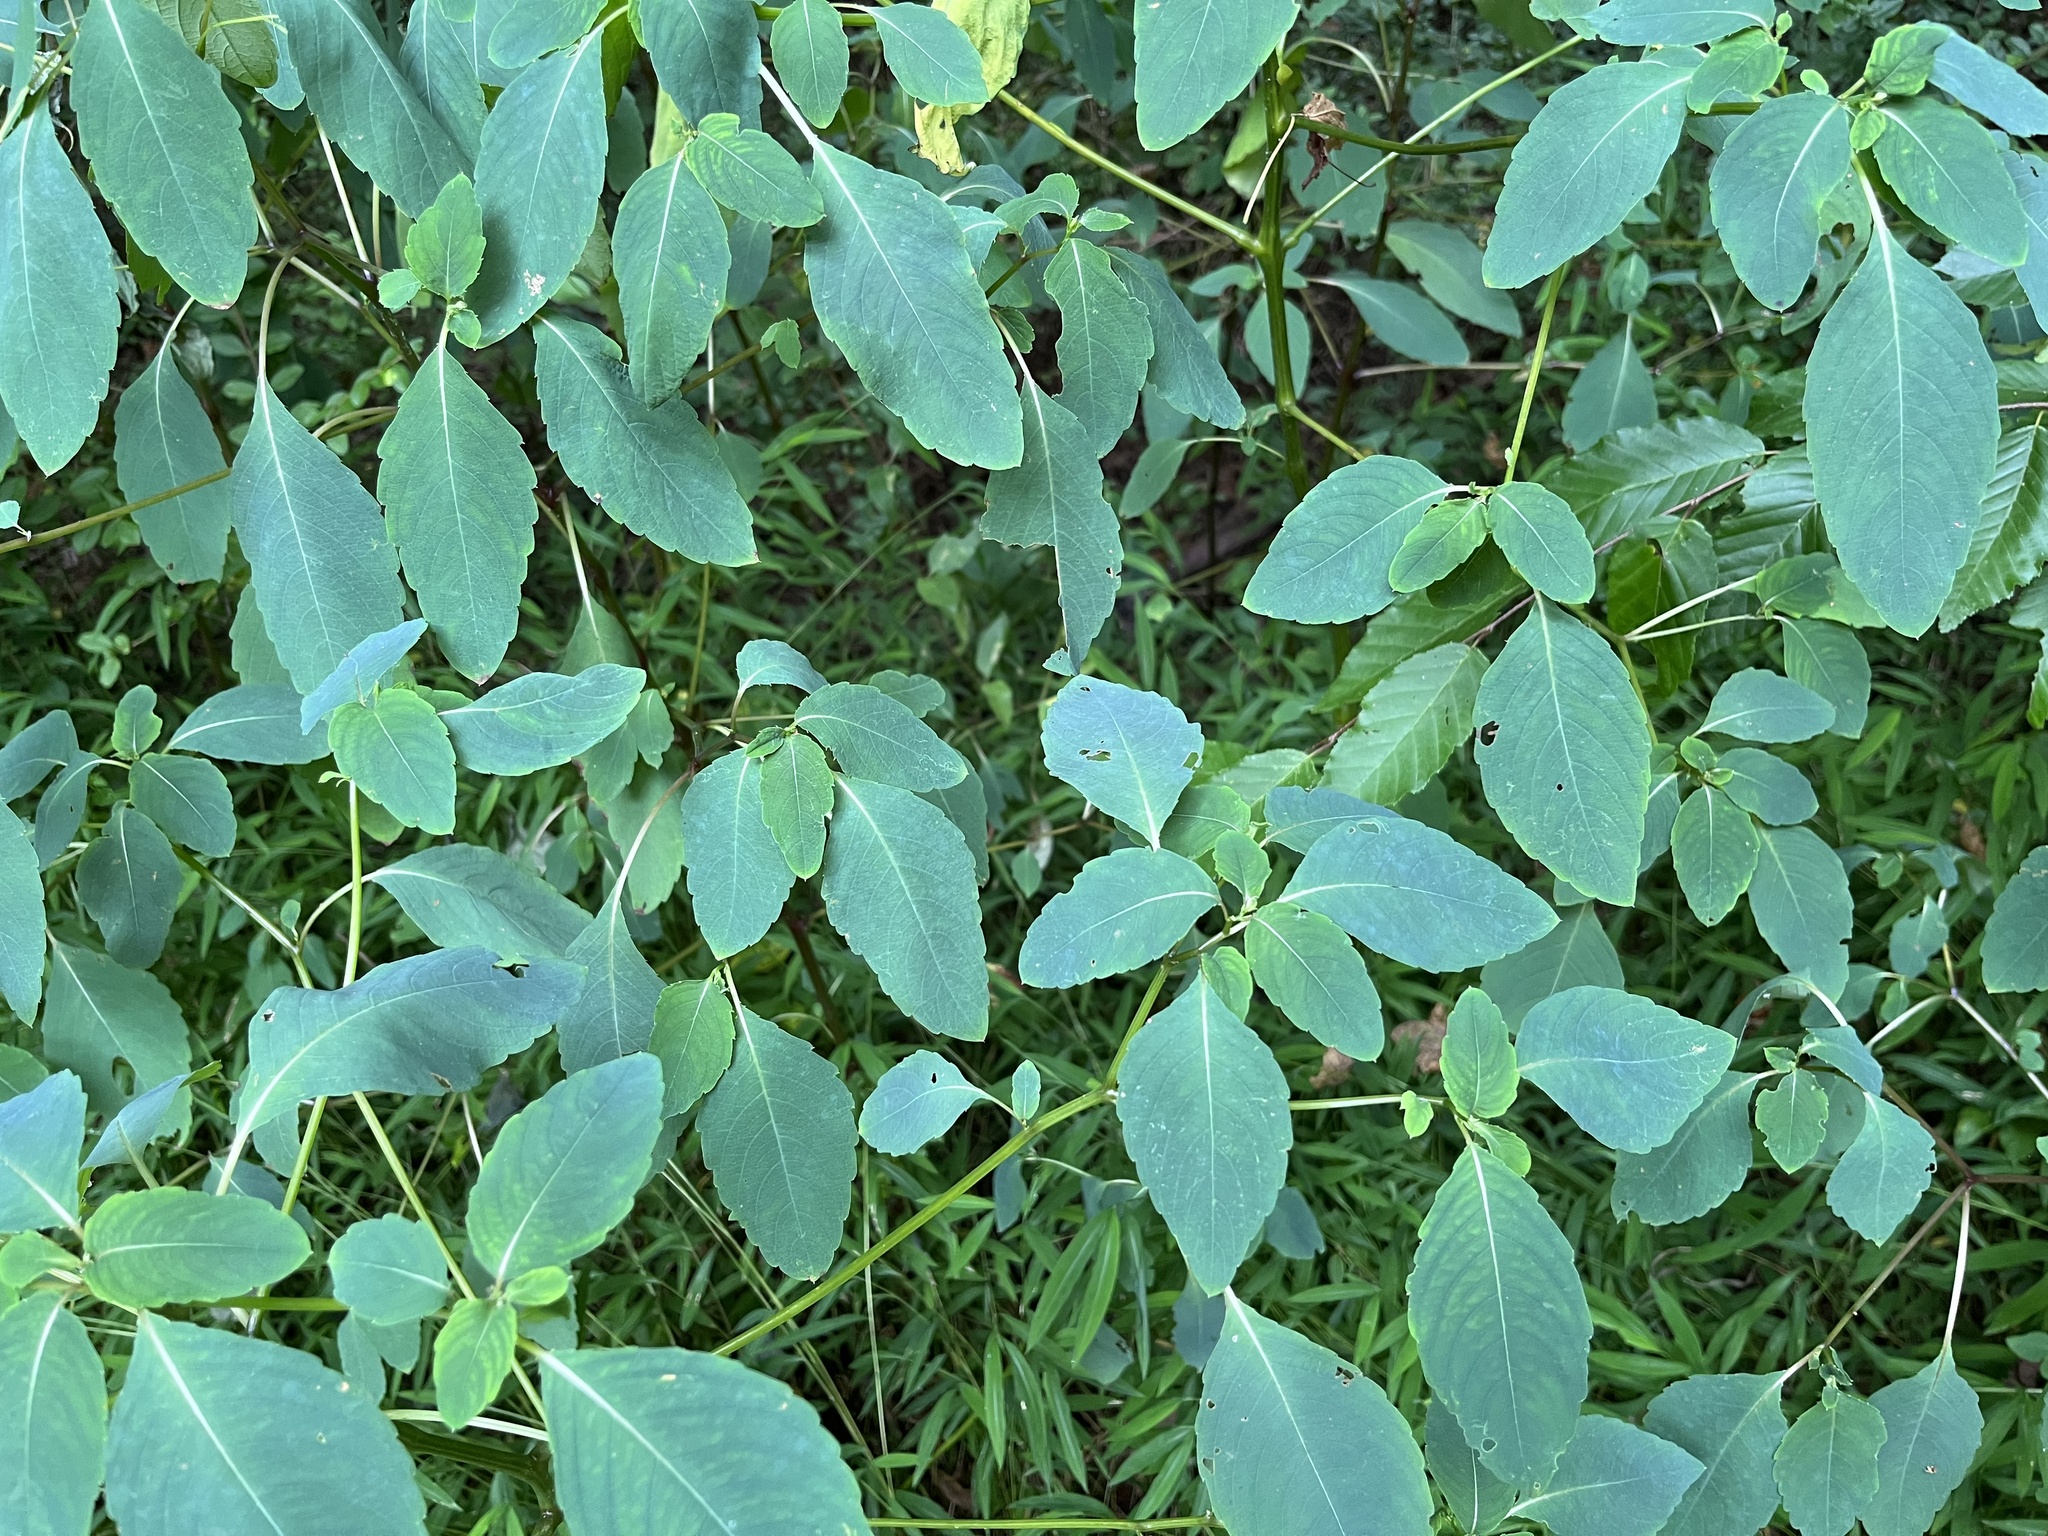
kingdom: Plantae
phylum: Tracheophyta
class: Magnoliopsida
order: Ericales
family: Balsaminaceae
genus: Impatiens
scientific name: Impatiens capensis
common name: Orange balsam
